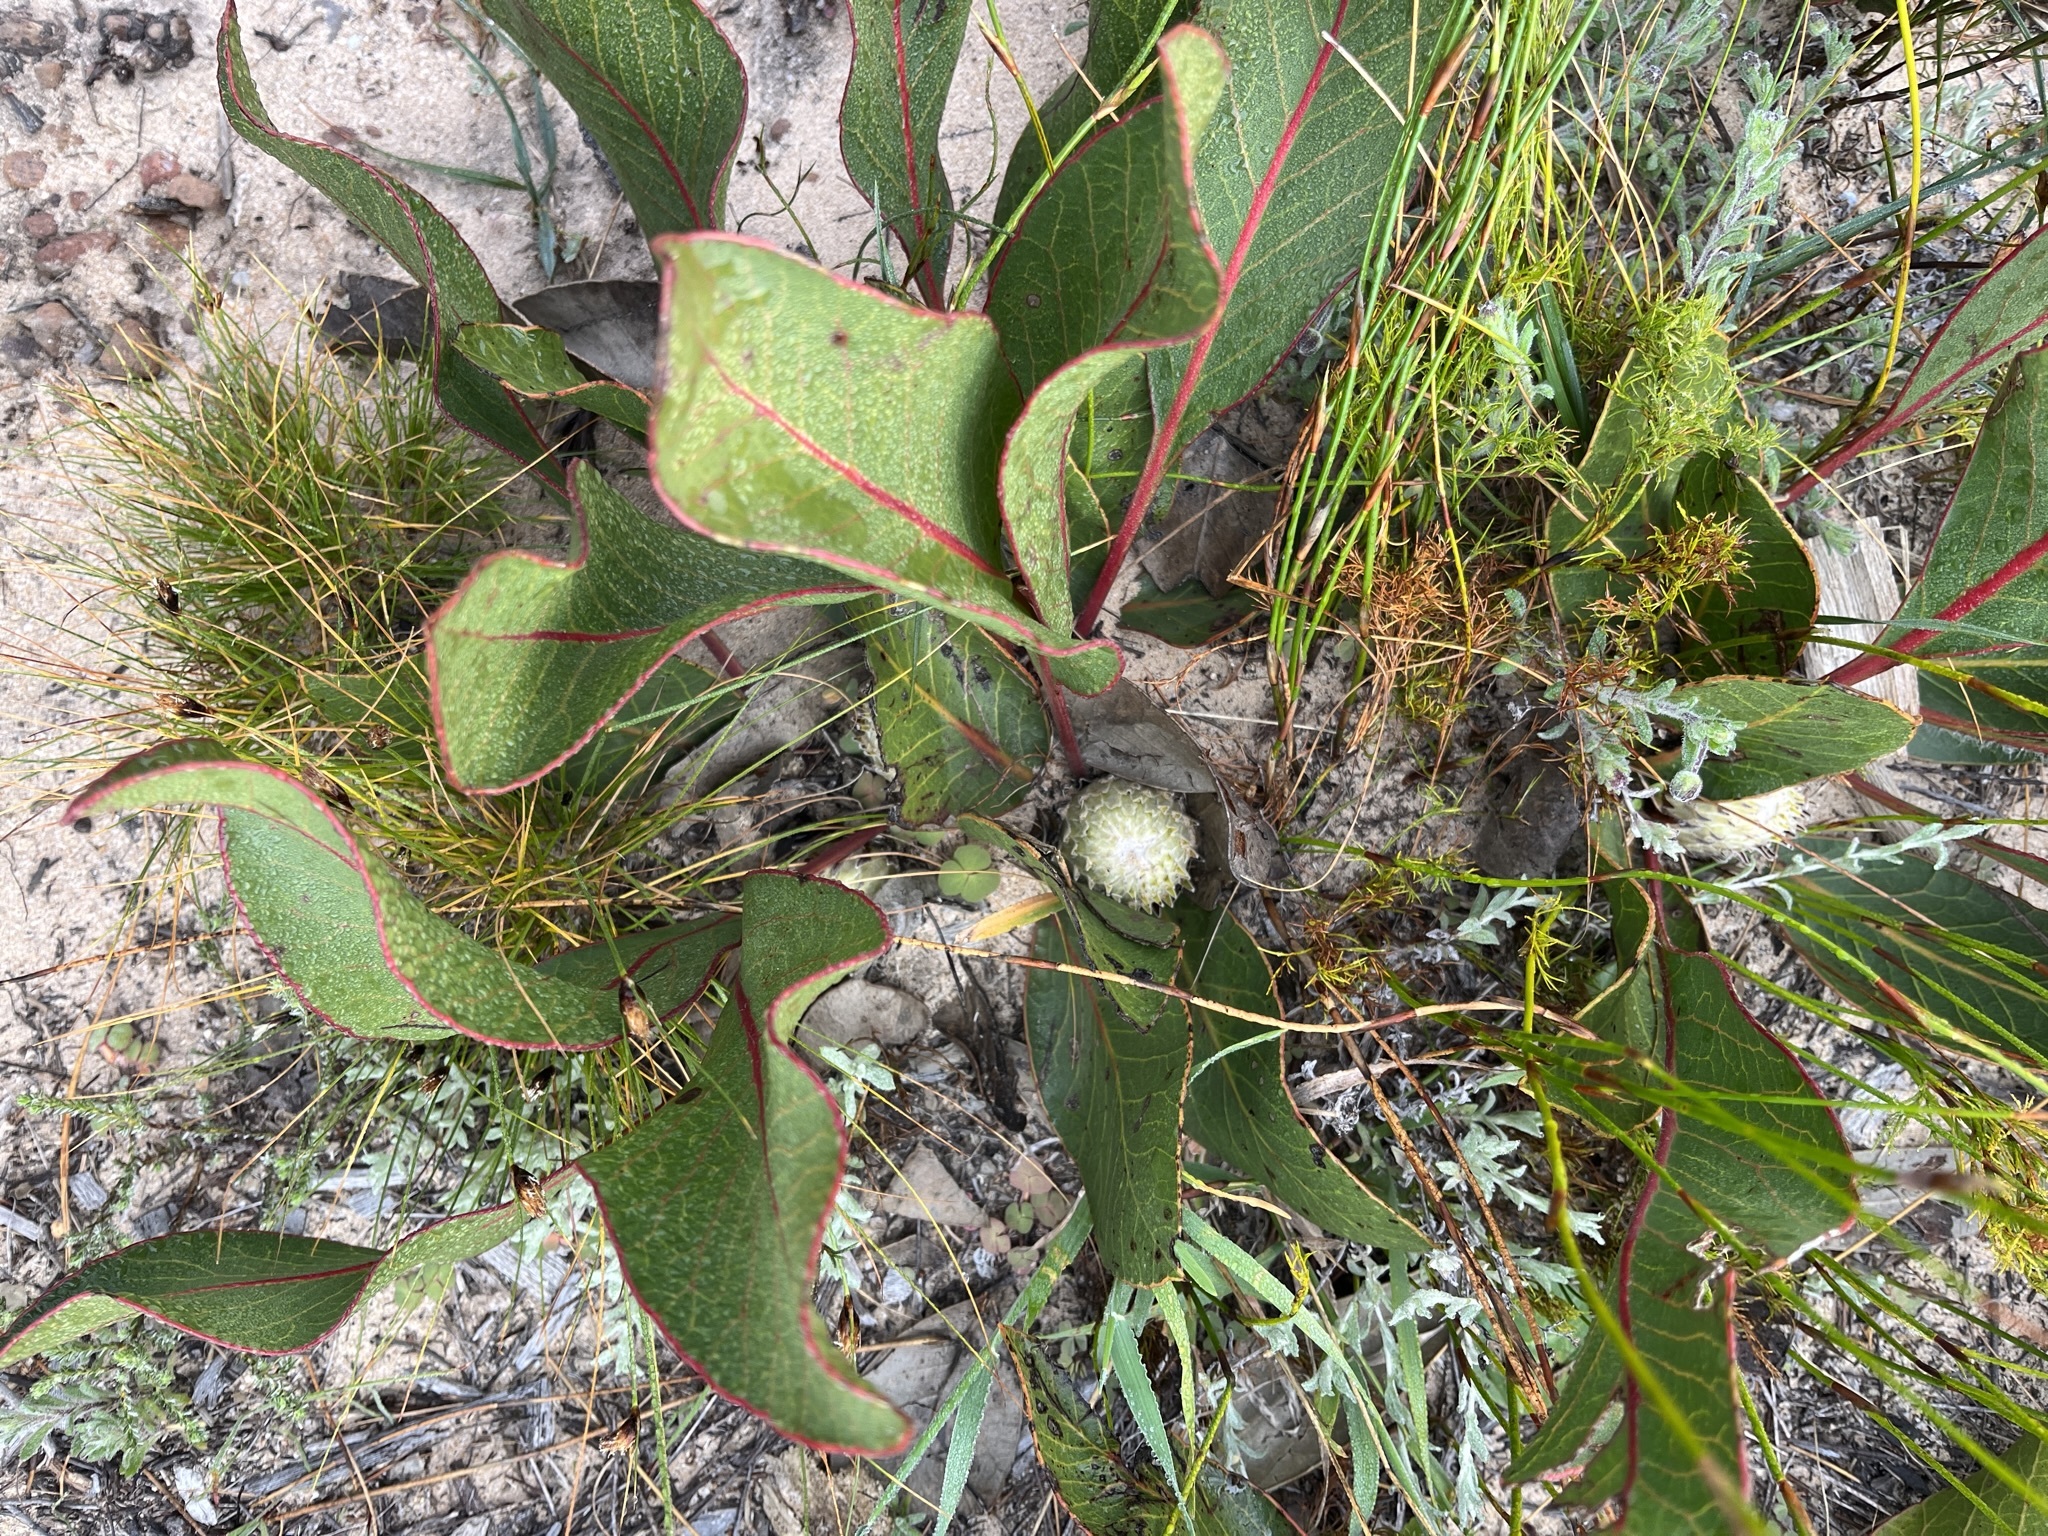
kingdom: Plantae
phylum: Tracheophyta
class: Magnoliopsida
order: Proteales
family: Proteaceae
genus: Protea
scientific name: Protea scolopendriifolia
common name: Harts-tongue-fern sugarbush
